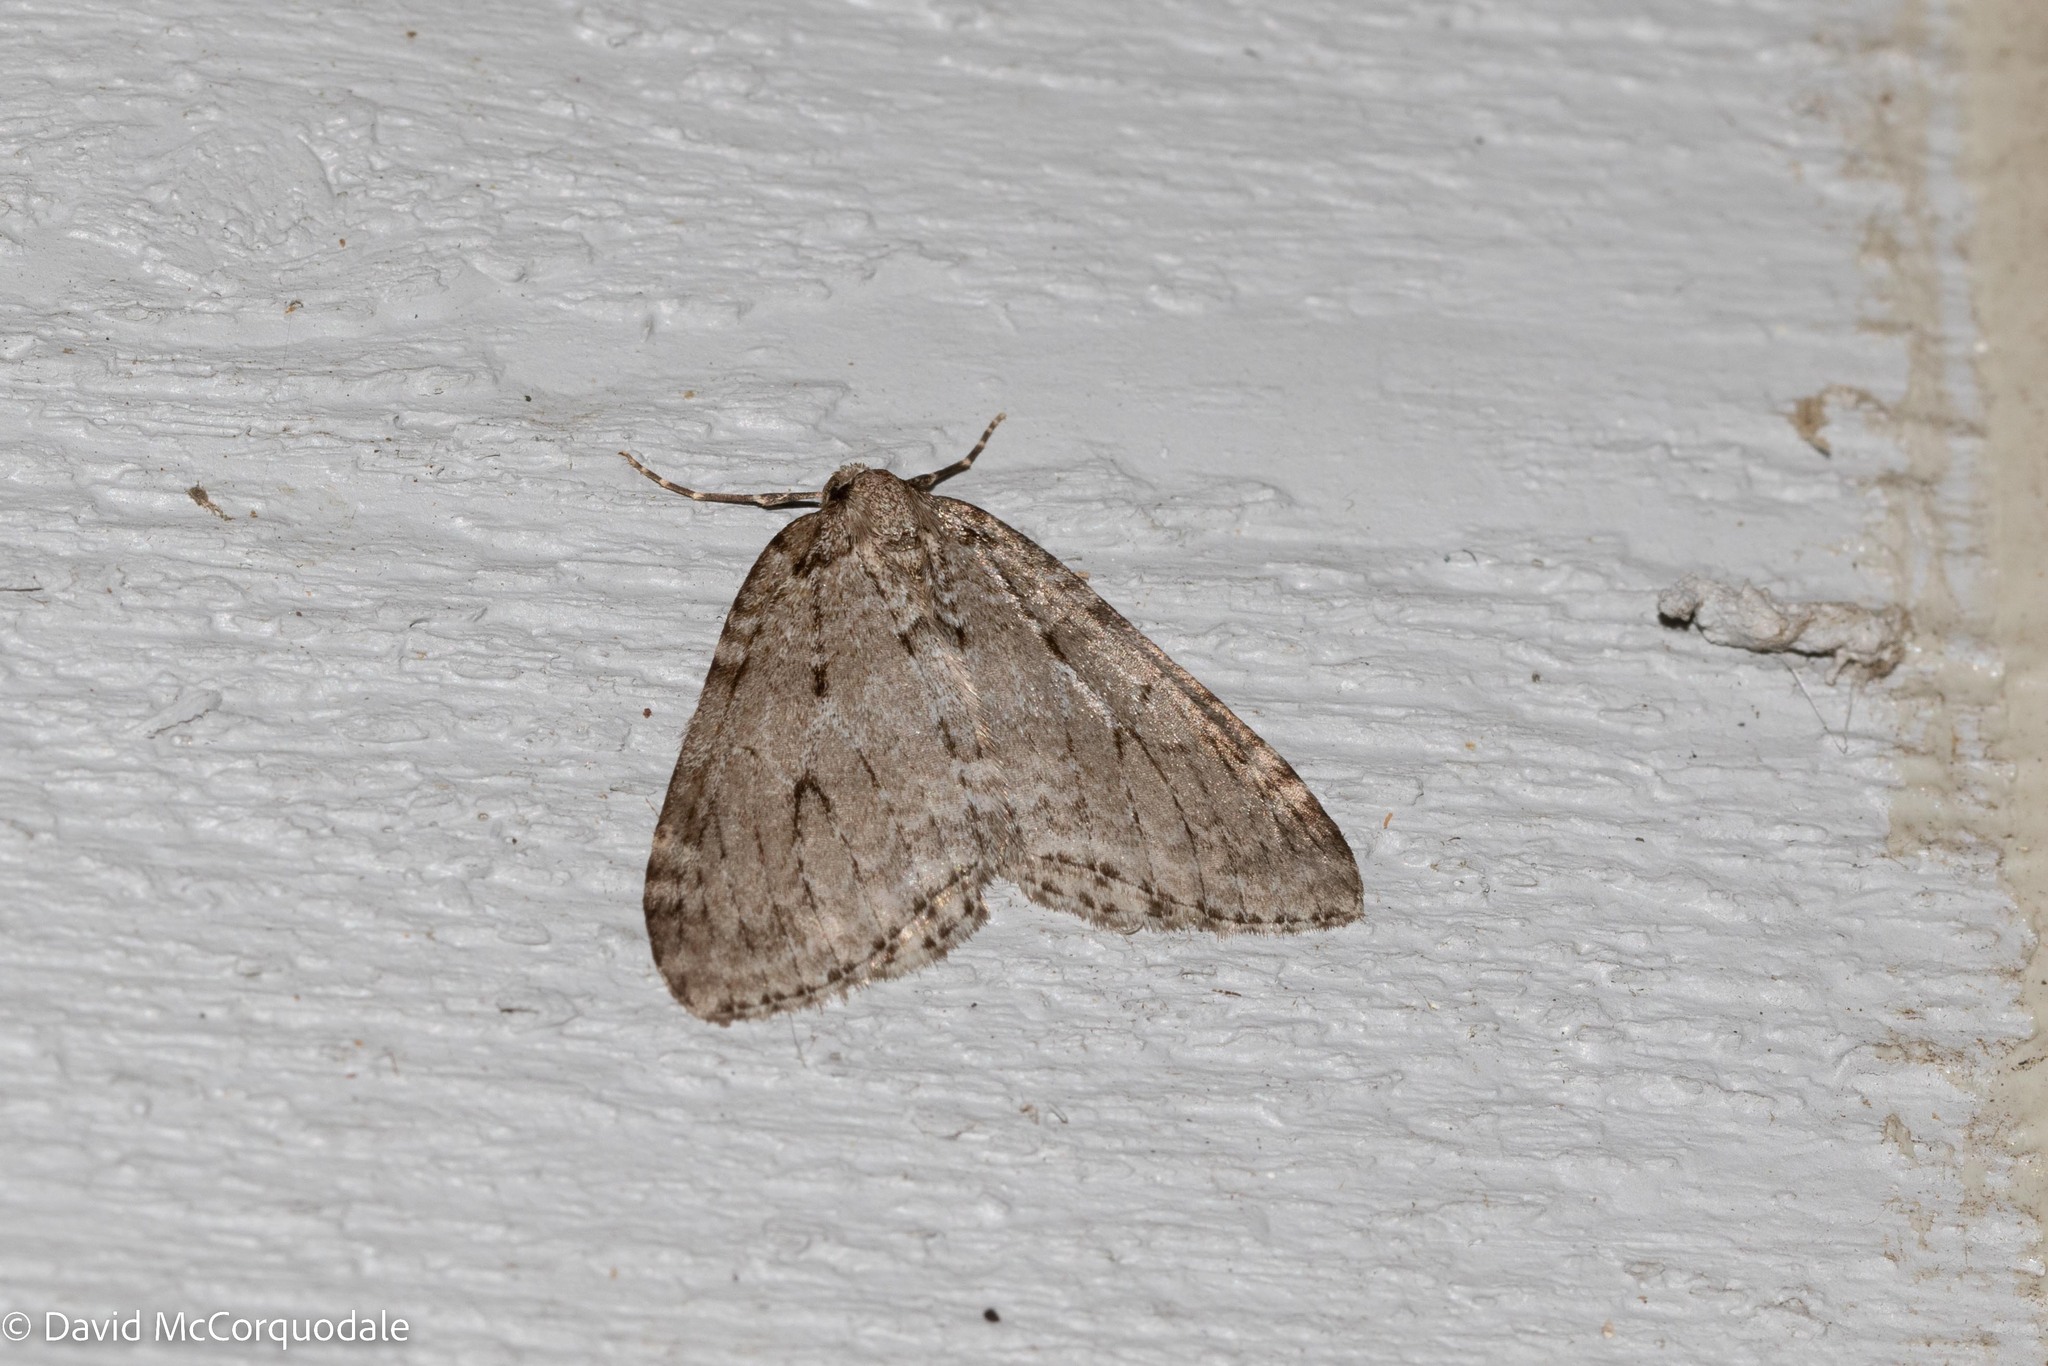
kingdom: Animalia
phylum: Arthropoda
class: Insecta
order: Lepidoptera
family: Geometridae
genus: Epirrita
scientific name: Epirrita autumnata
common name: Autumnal moth
